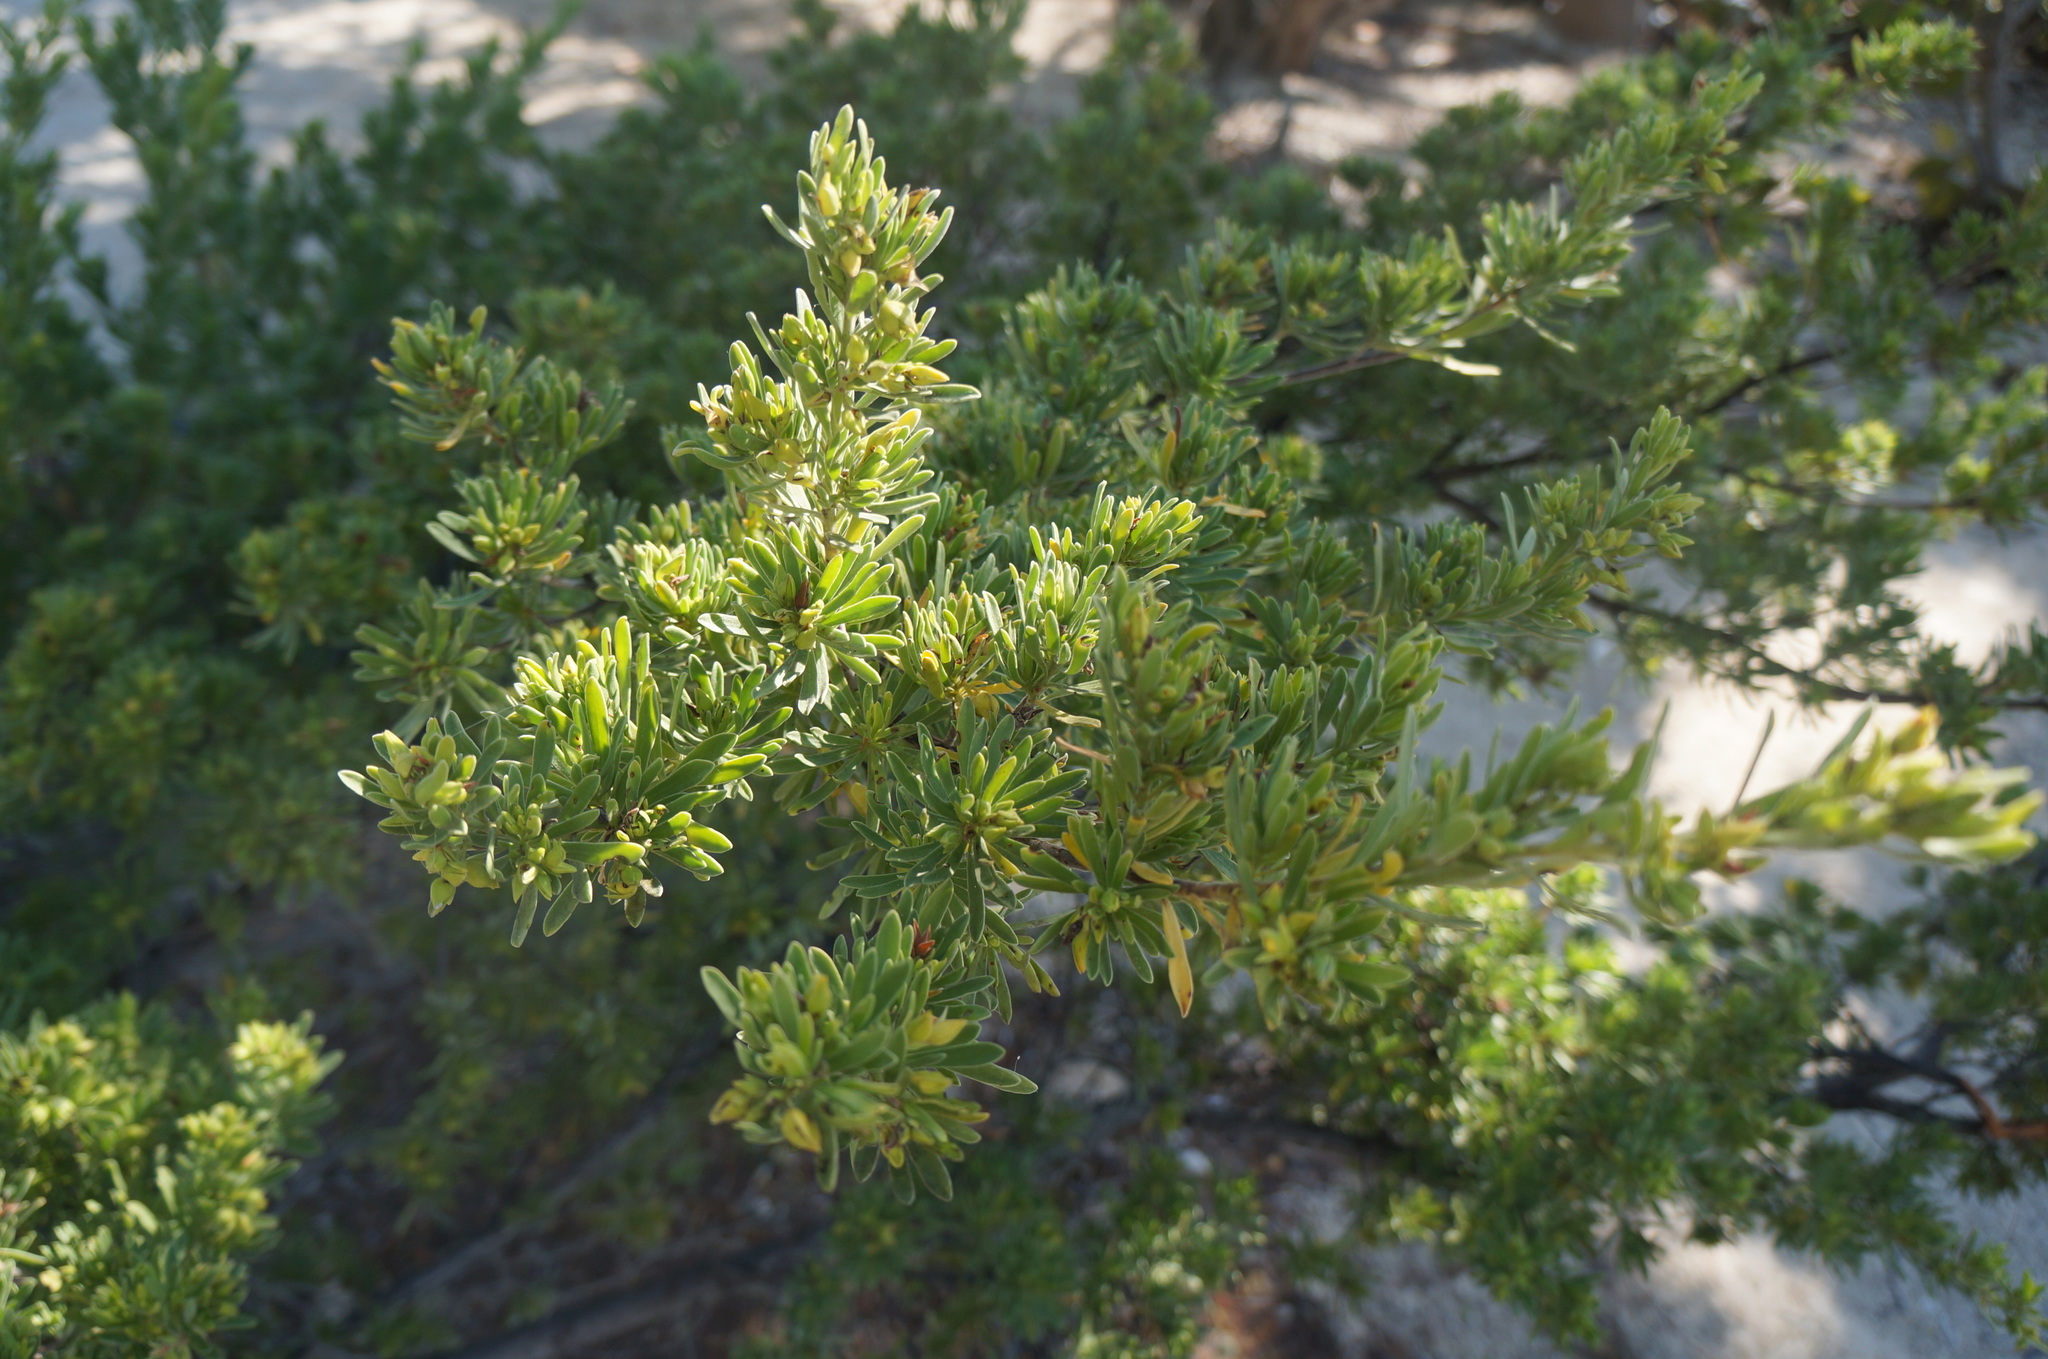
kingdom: Plantae
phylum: Tracheophyta
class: Magnoliopsida
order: Fabales
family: Surianaceae
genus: Suriana
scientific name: Suriana maritima
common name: Bay-cedar
